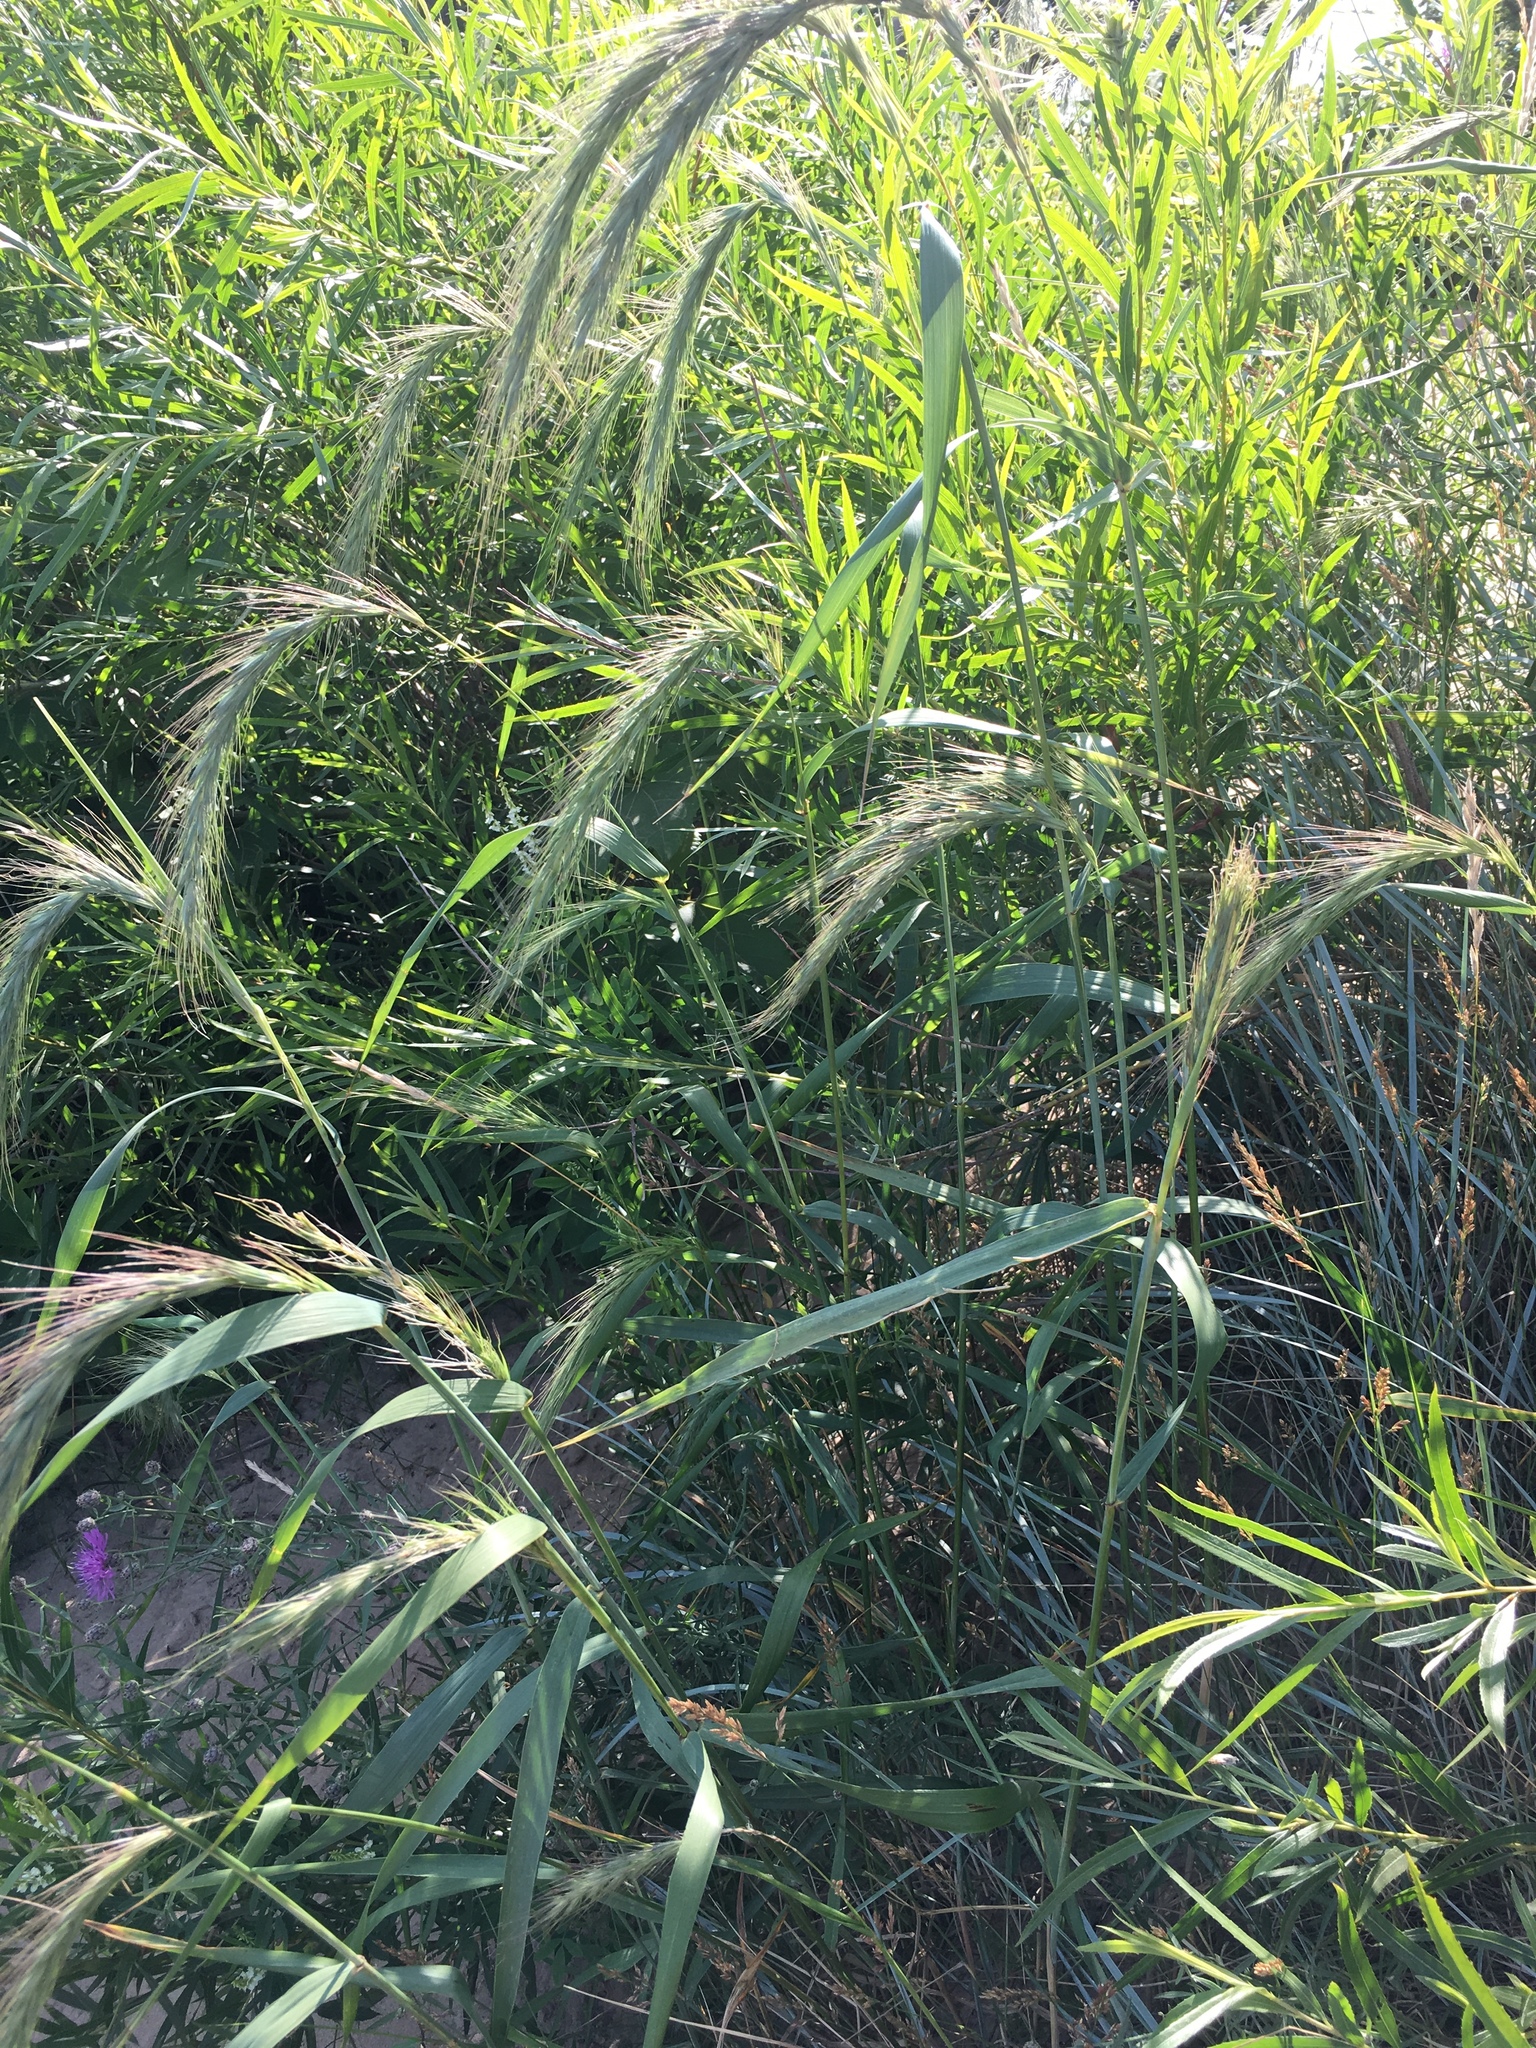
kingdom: Plantae
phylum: Tracheophyta
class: Liliopsida
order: Poales
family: Poaceae
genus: Elymus
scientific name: Elymus canadensis
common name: Canada wild rye
